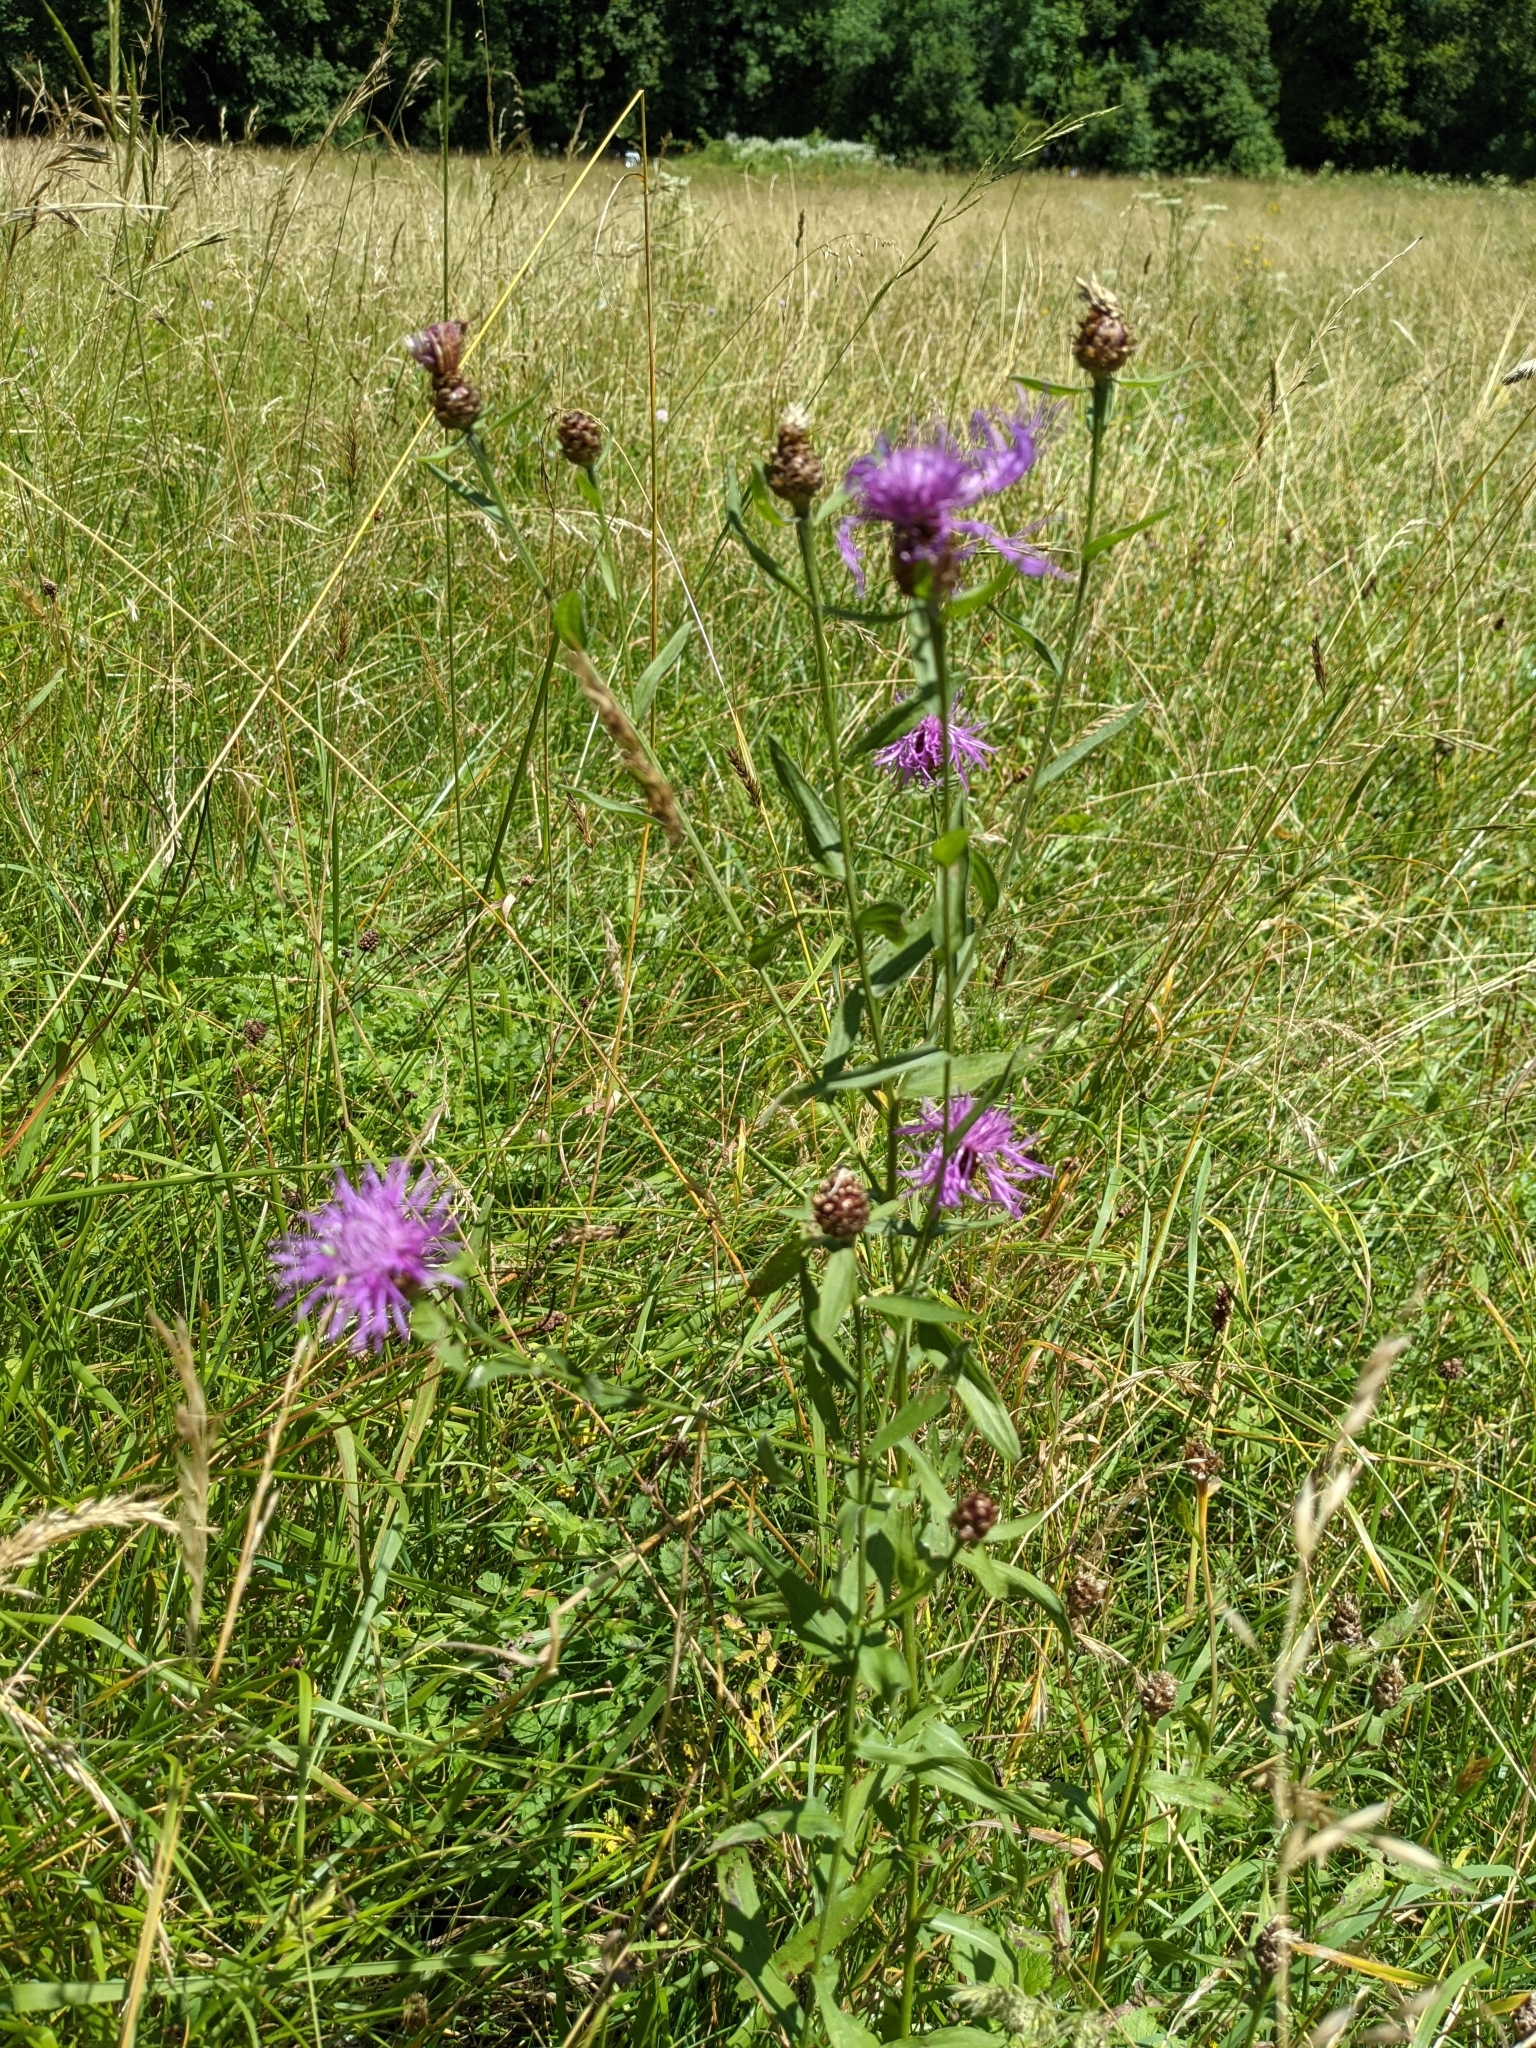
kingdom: Plantae
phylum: Tracheophyta
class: Magnoliopsida
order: Asterales
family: Asteraceae
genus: Centaurea
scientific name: Centaurea jacea
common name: Brown knapweed
